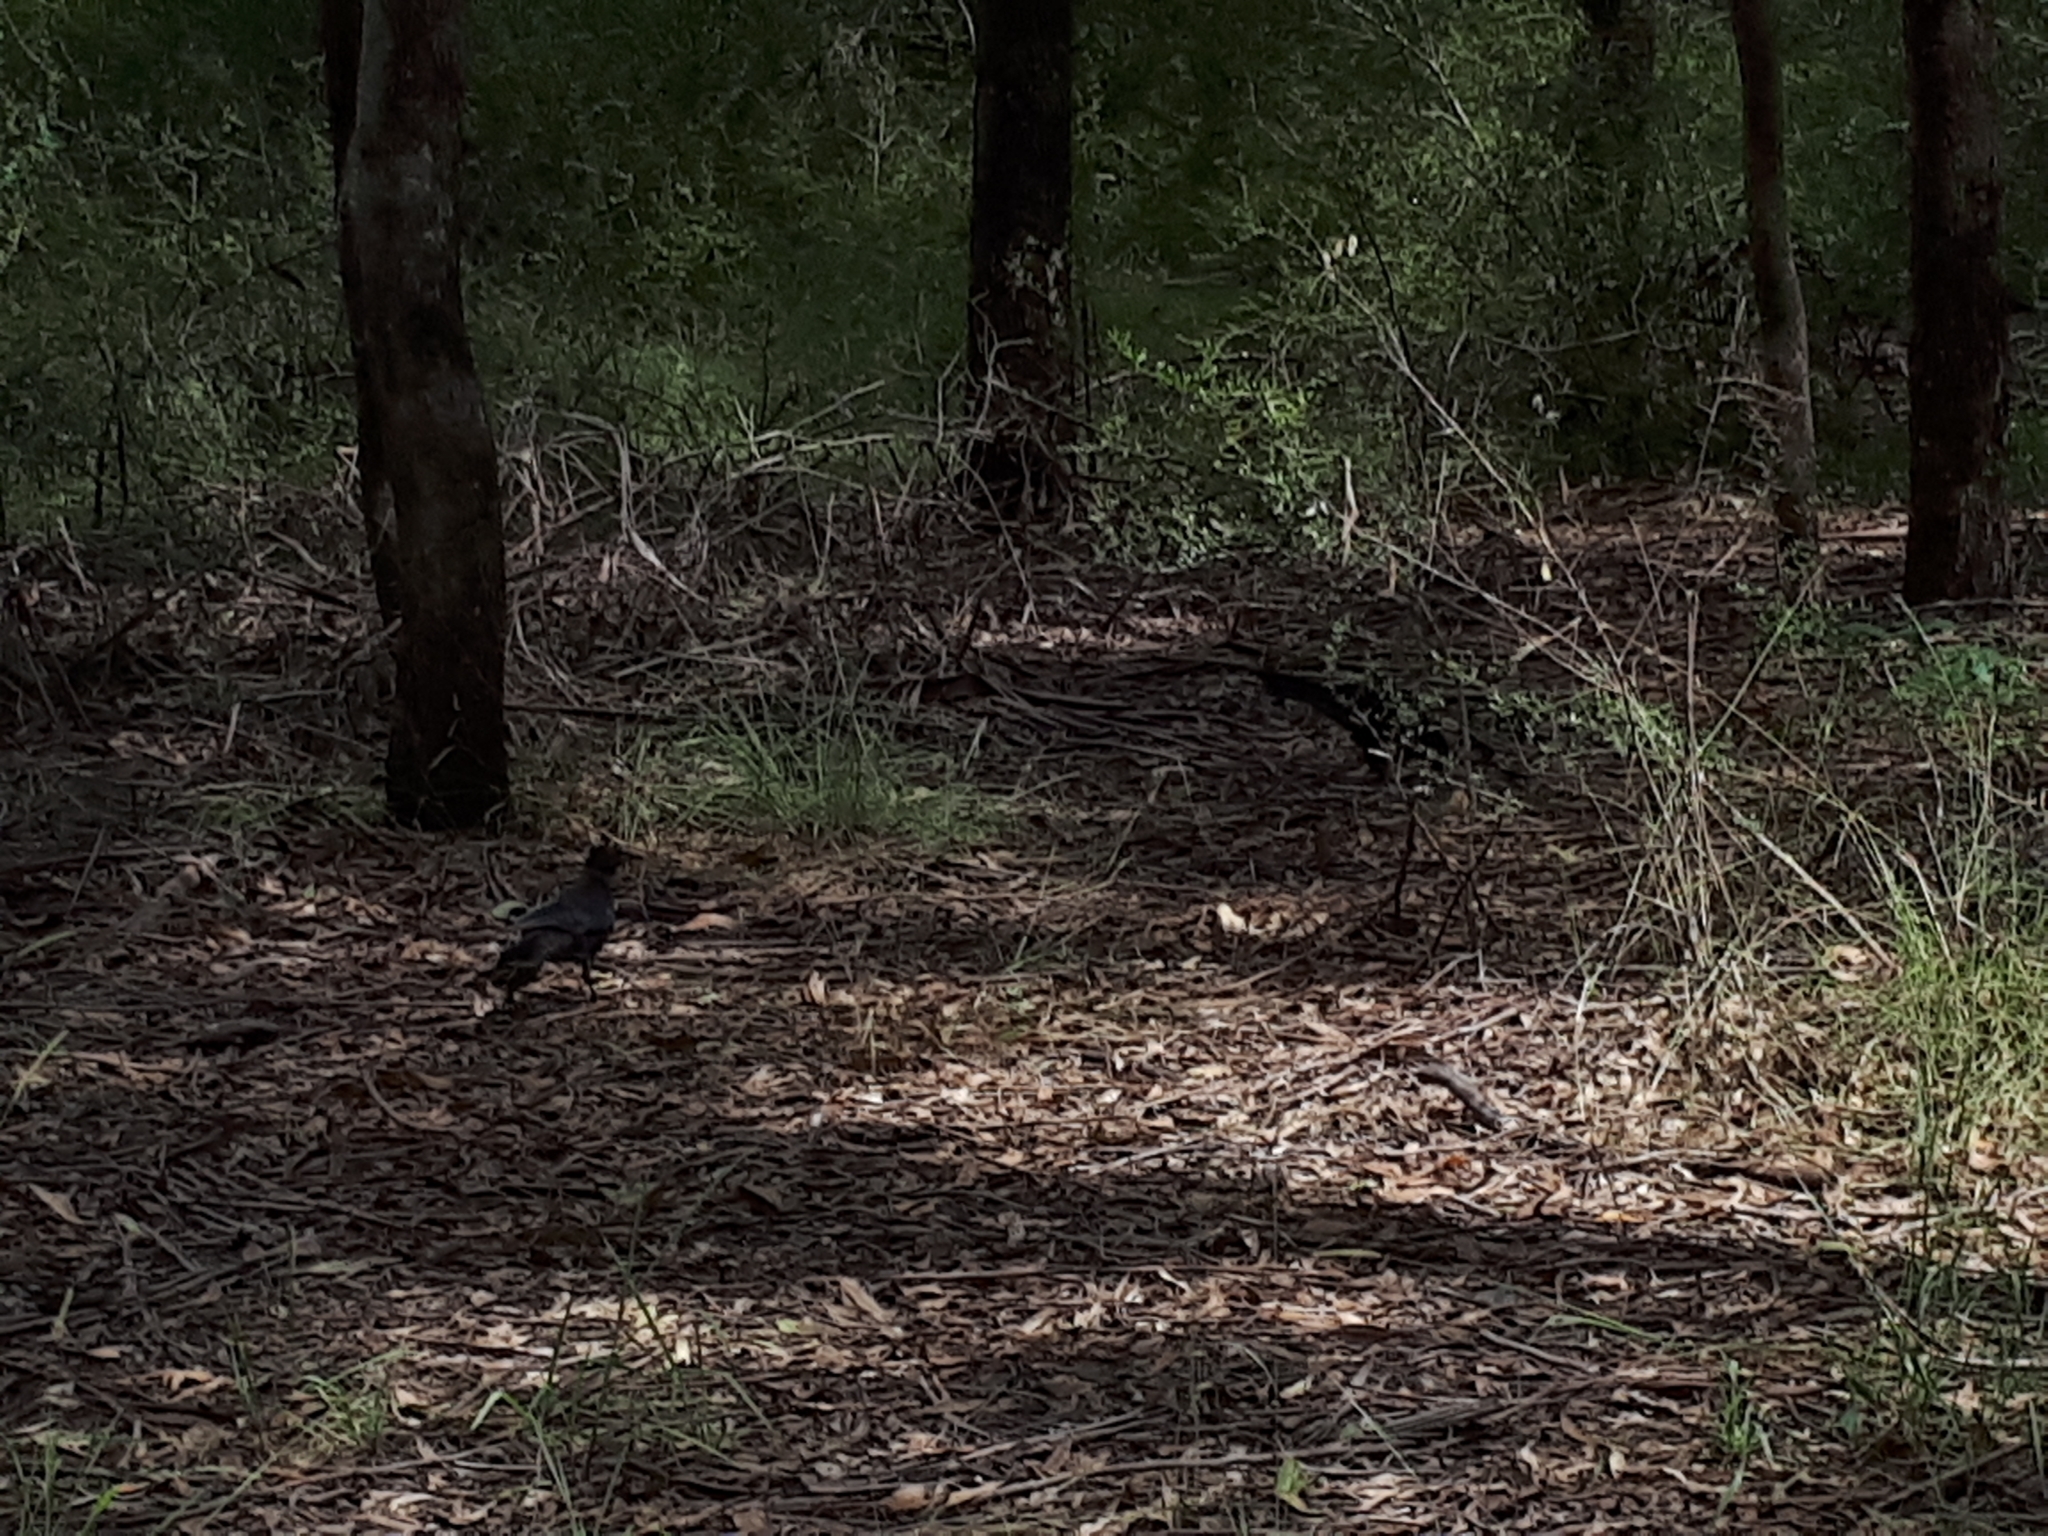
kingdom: Animalia
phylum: Chordata
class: Aves
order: Passeriformes
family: Corcoracidae
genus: Corcorax
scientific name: Corcorax melanoramphos
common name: White-winged chough
